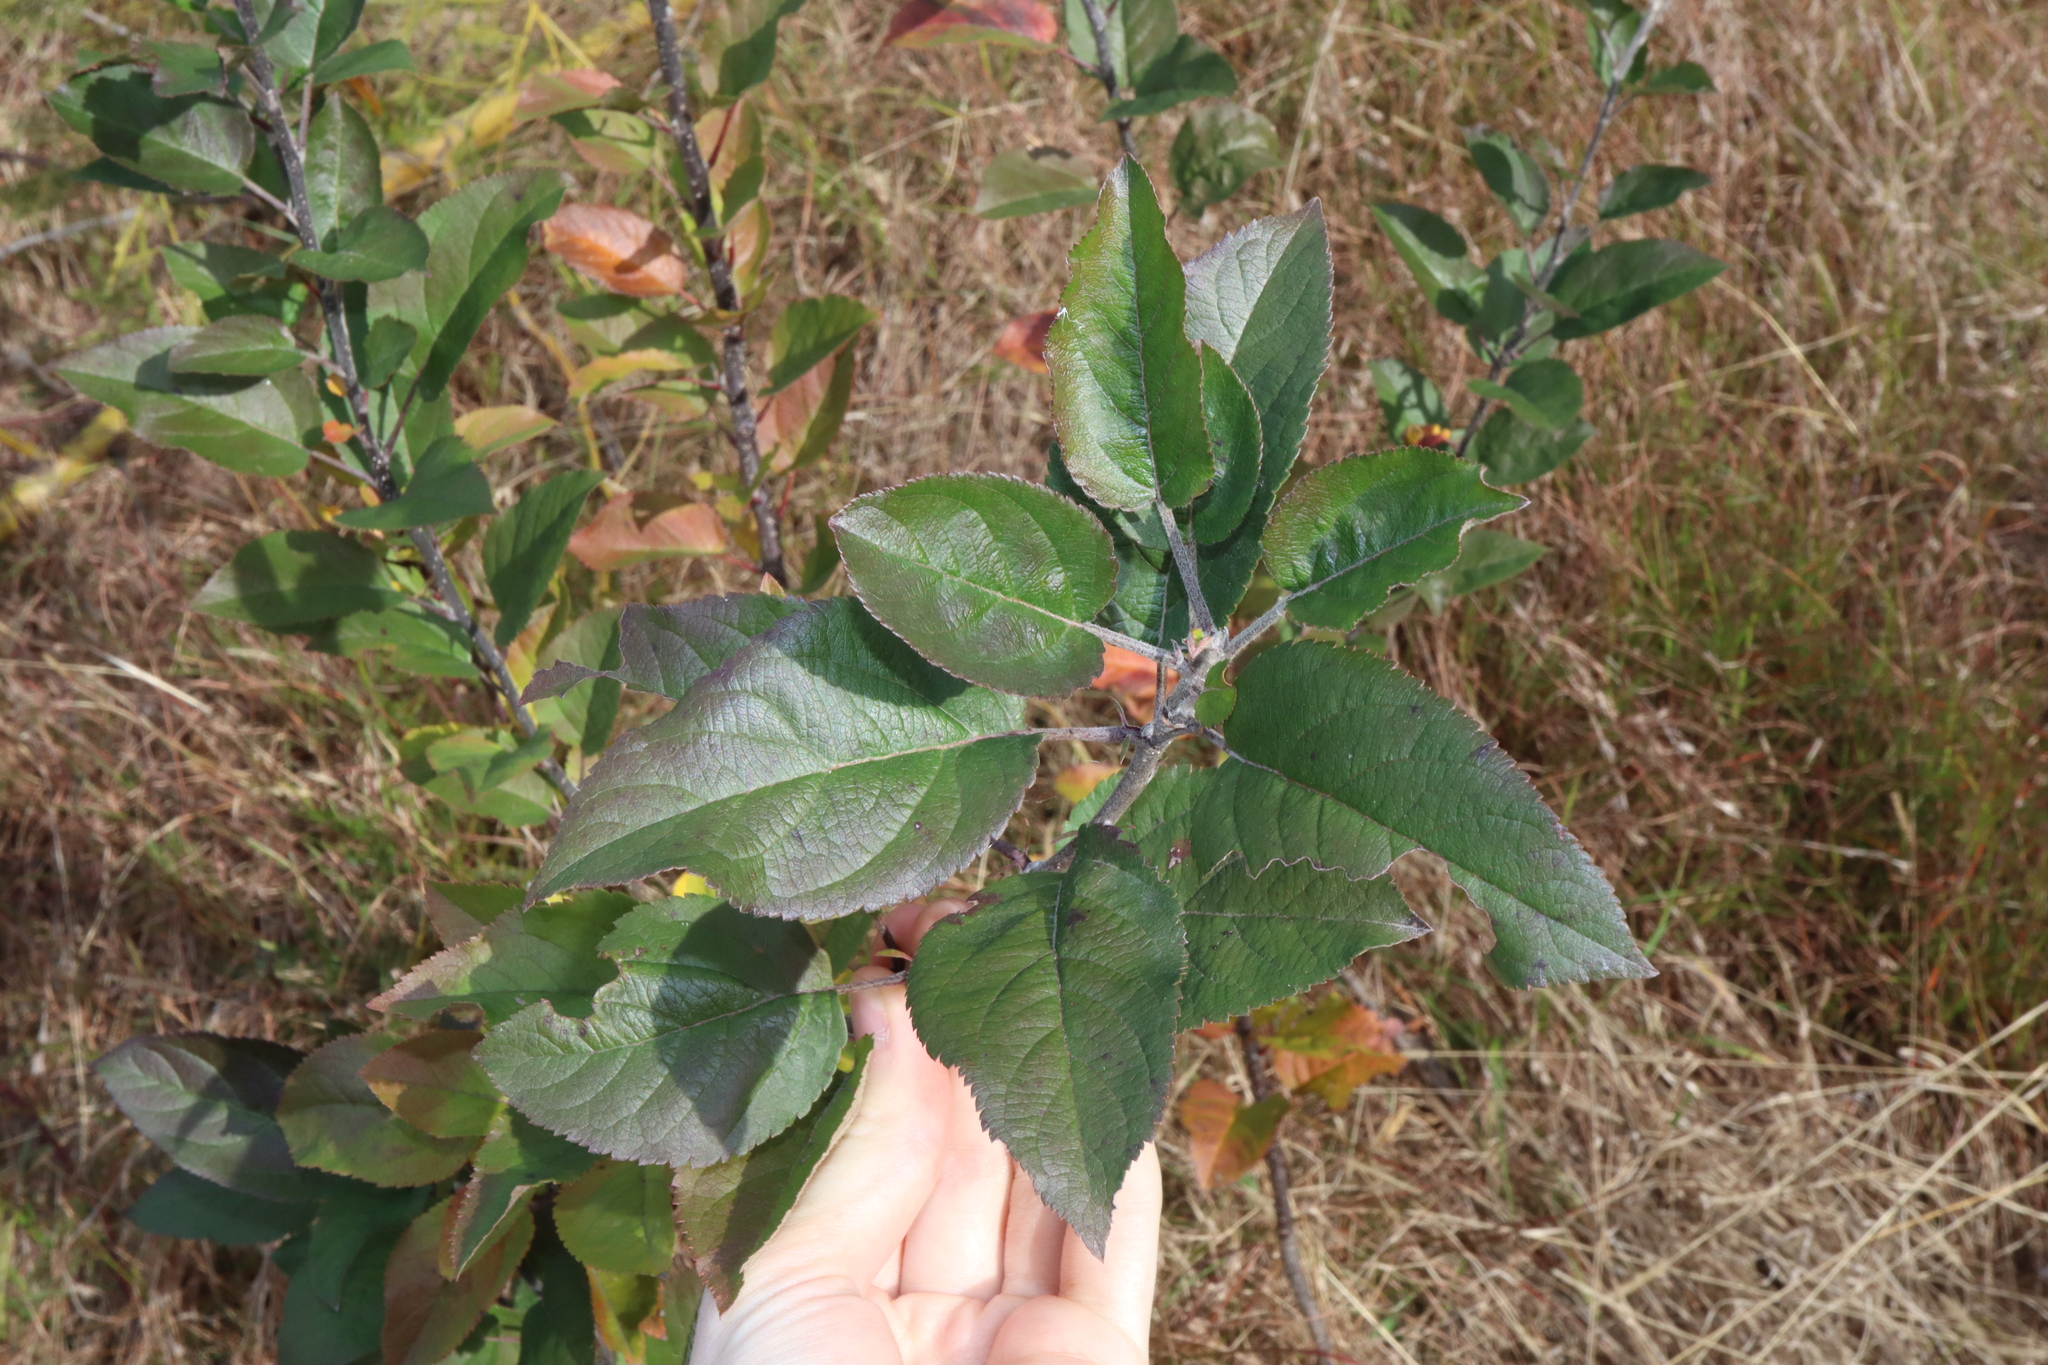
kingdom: Plantae
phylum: Tracheophyta
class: Magnoliopsida
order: Rosales
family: Rosaceae
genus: Malus
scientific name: Malus domestica
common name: Apple
